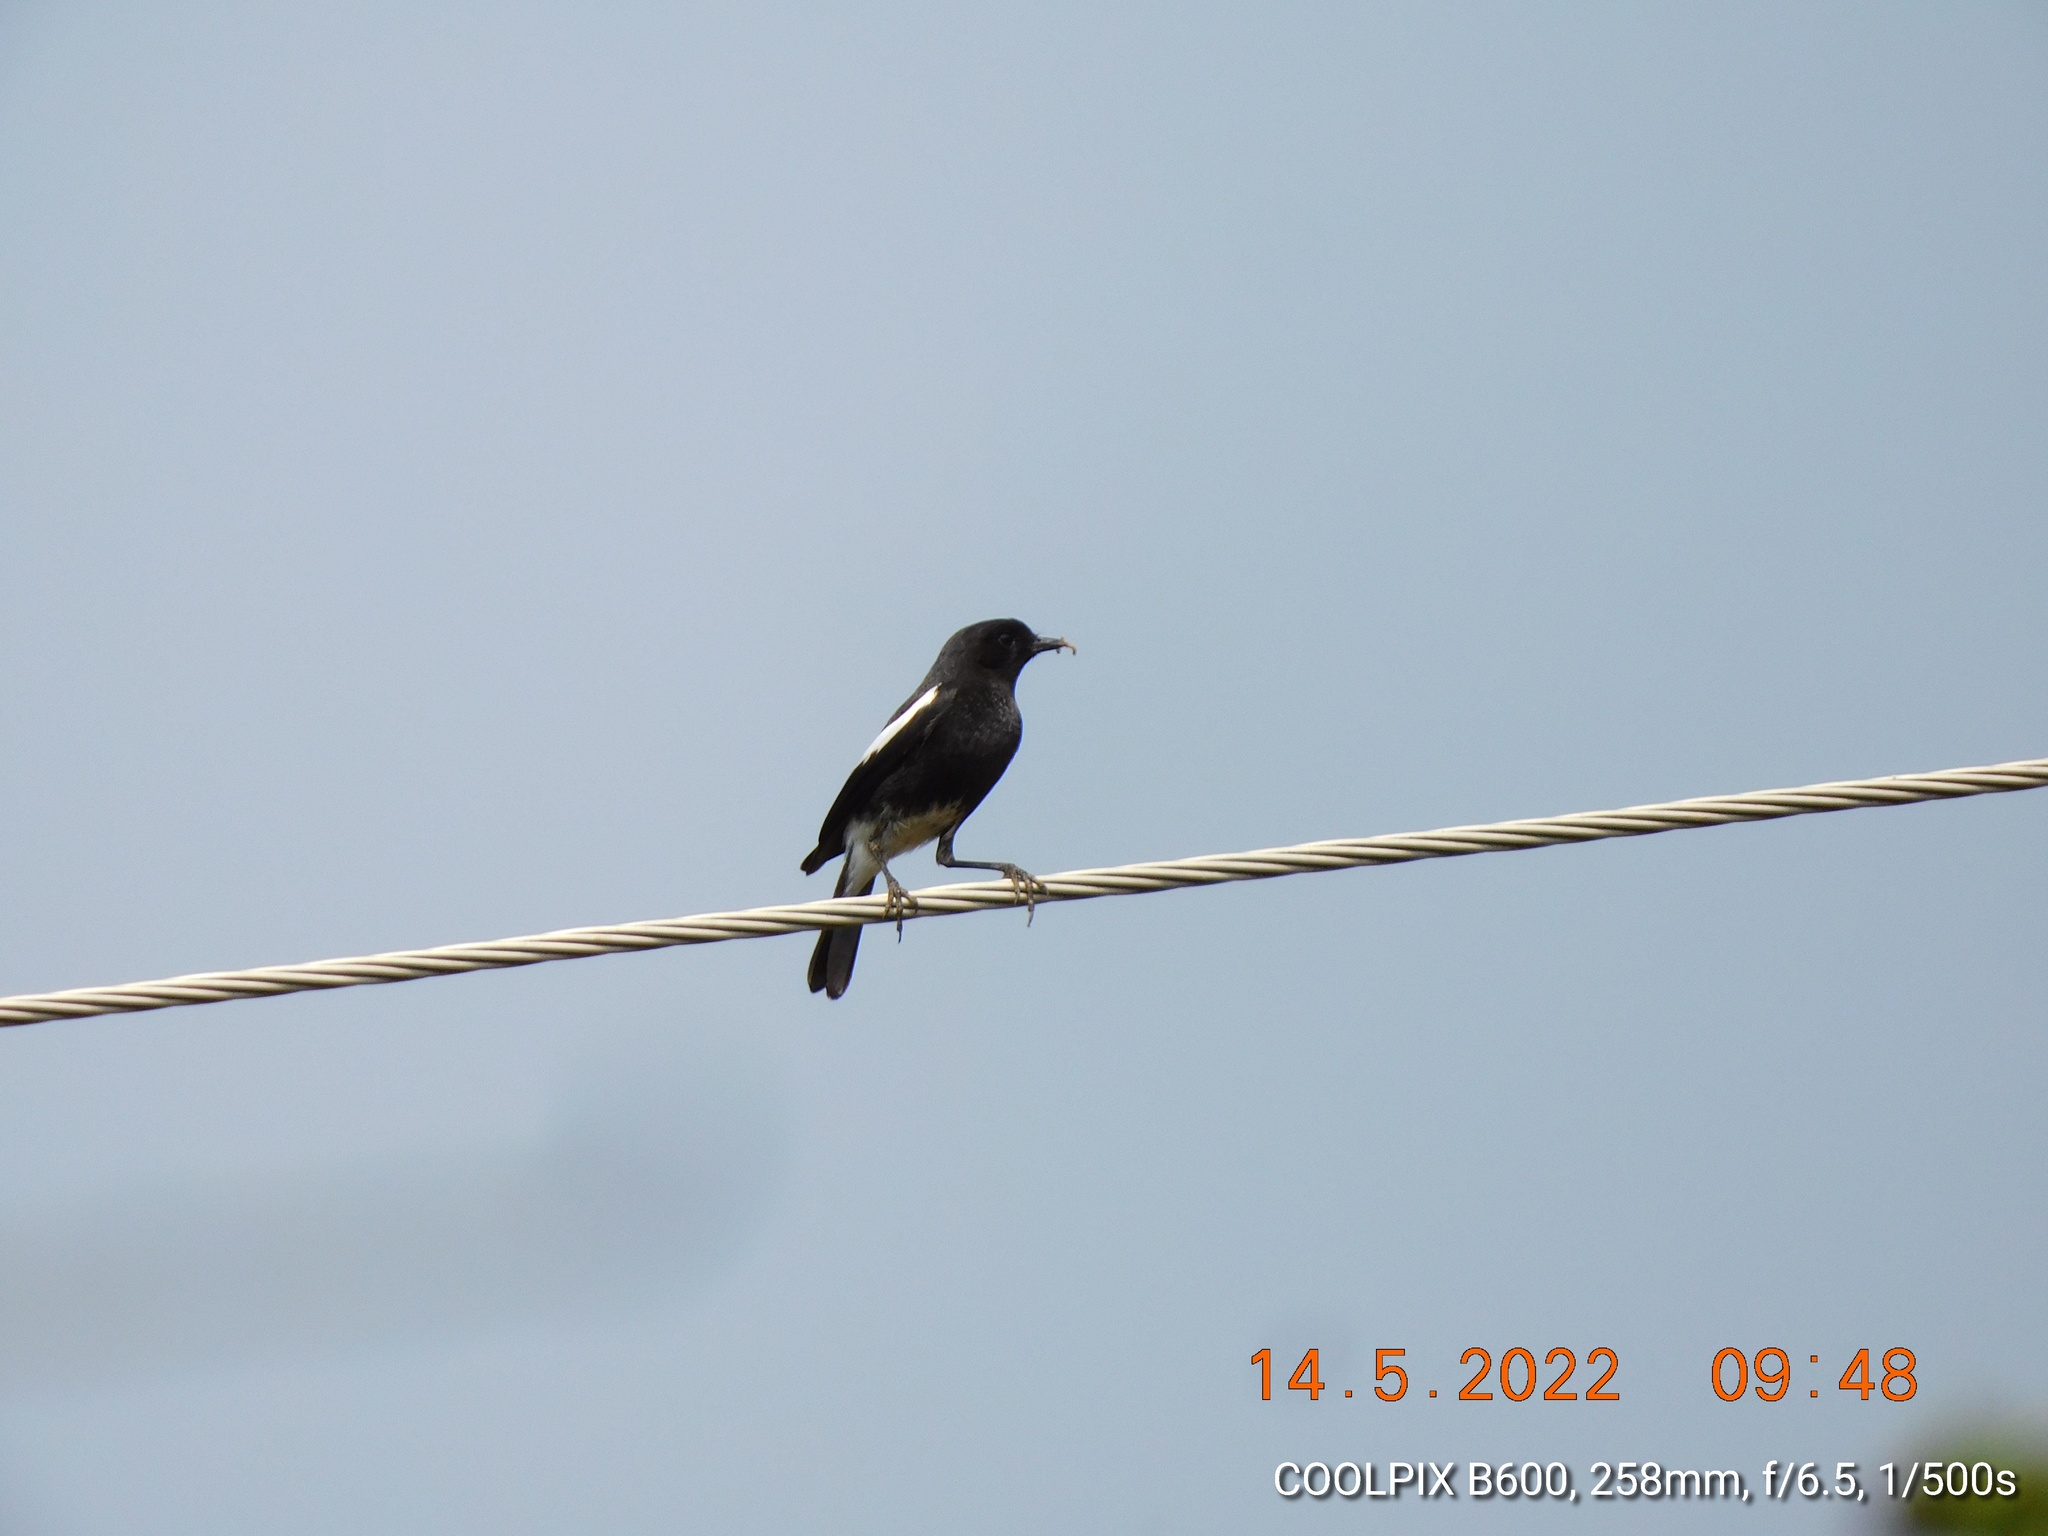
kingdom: Animalia
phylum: Chordata
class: Aves
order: Passeriformes
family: Muscicapidae
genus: Saxicola
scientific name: Saxicola caprata
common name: Pied bush chat
